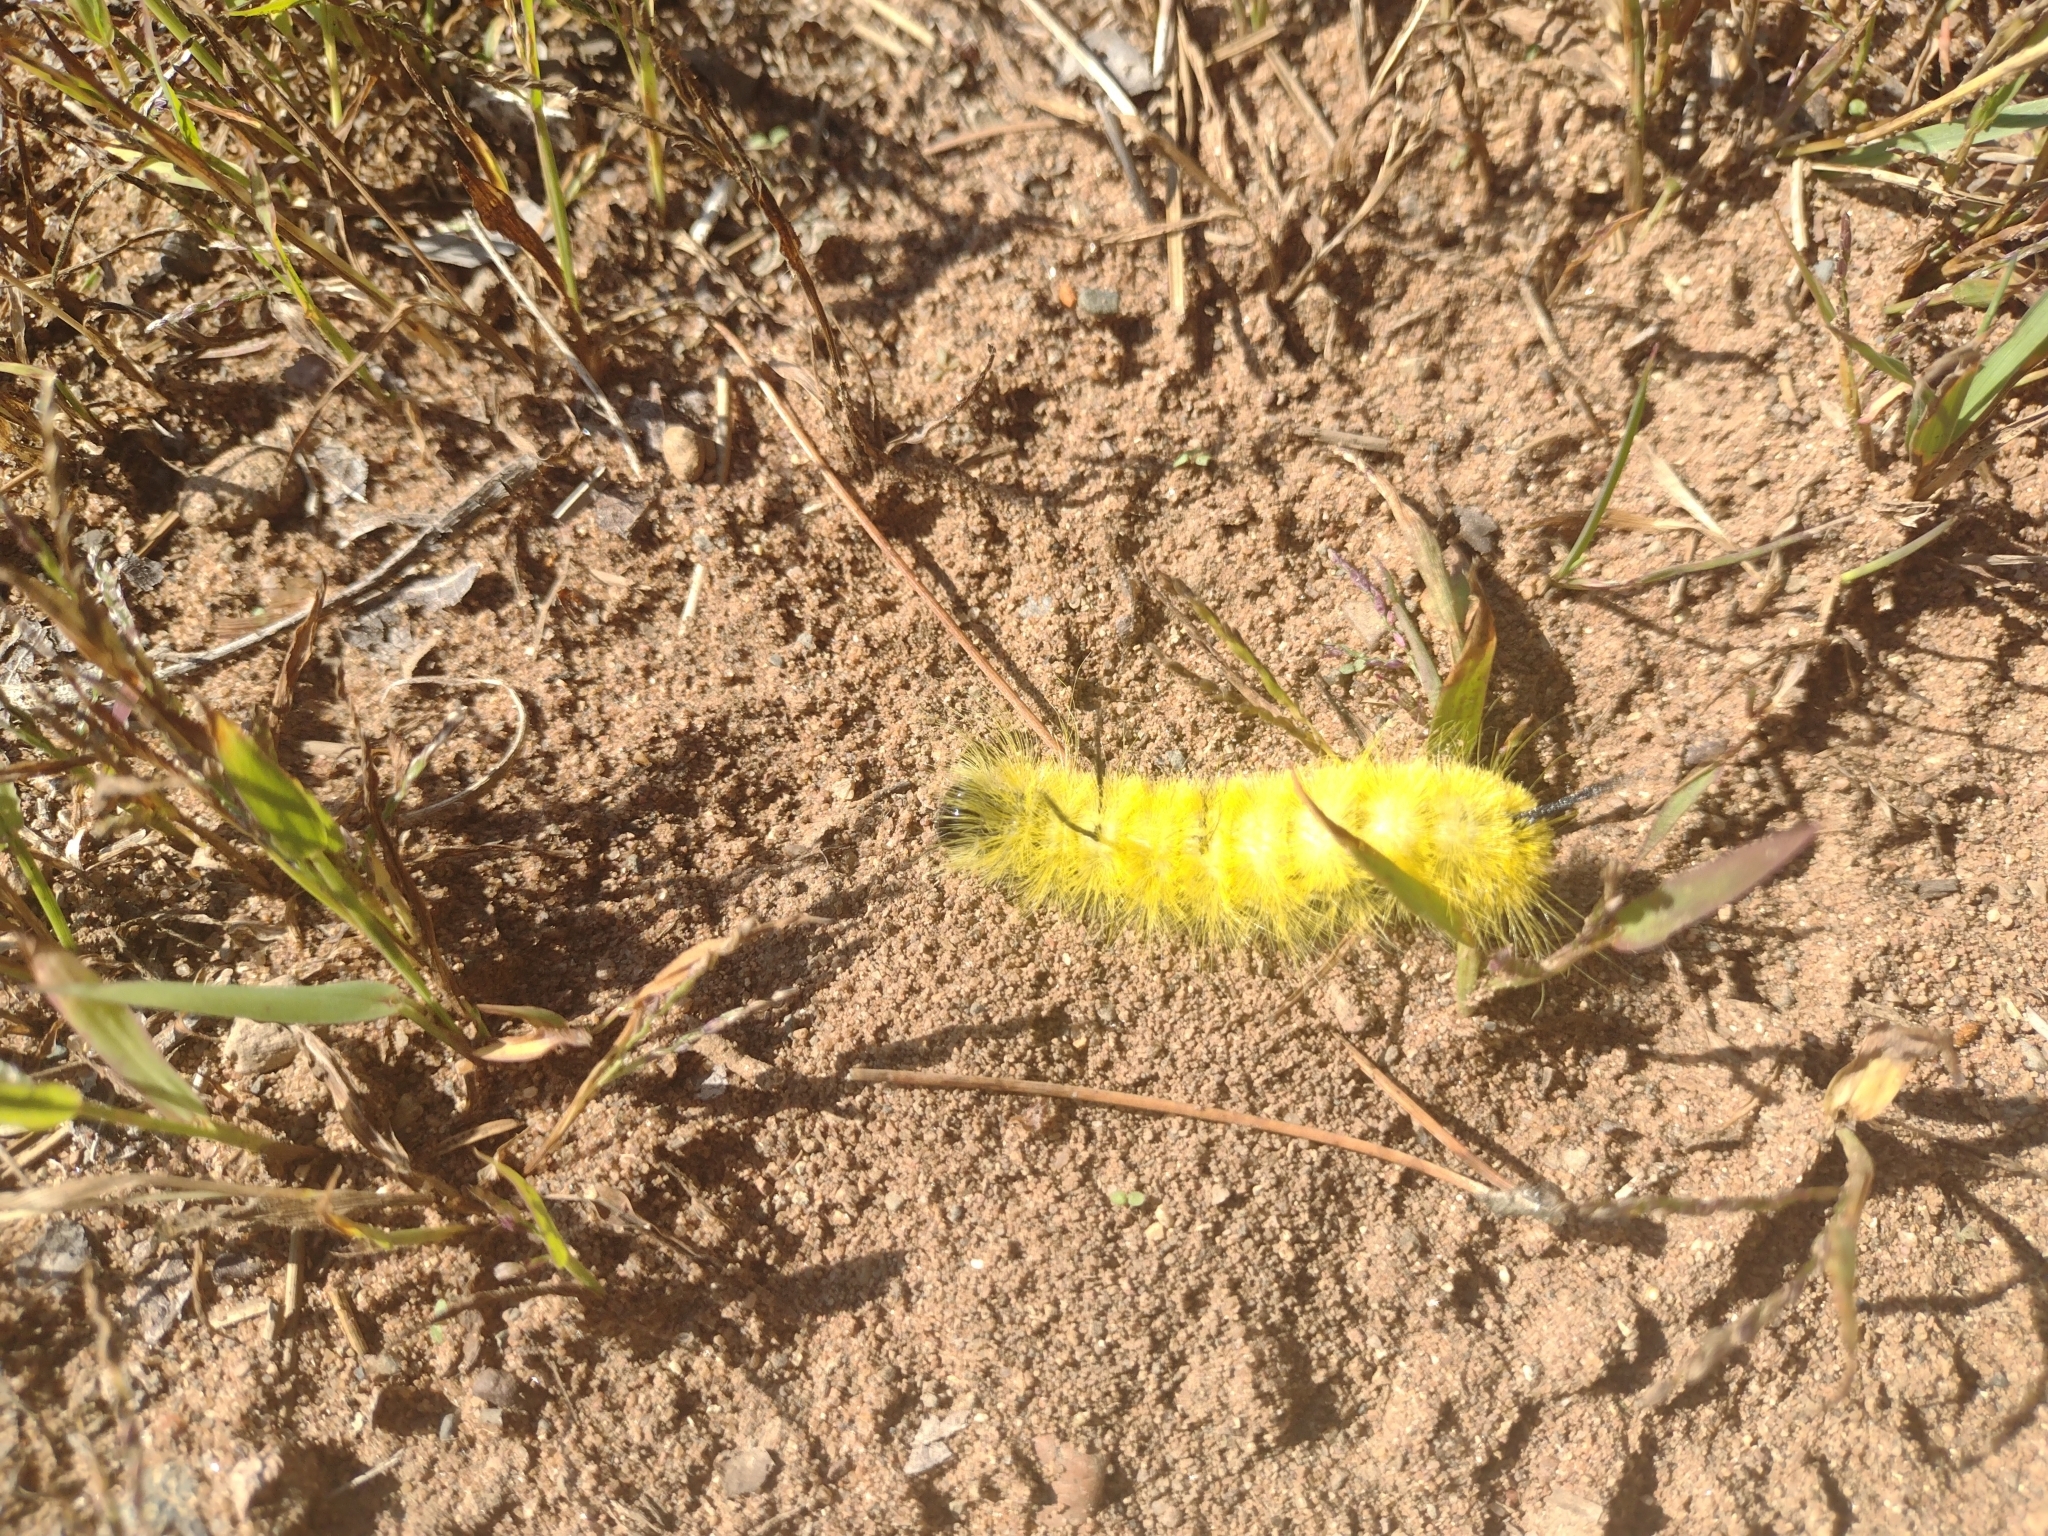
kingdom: Animalia
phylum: Arthropoda
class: Insecta
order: Lepidoptera
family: Noctuidae
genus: Acronicta
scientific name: Acronicta americana
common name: American dagger
